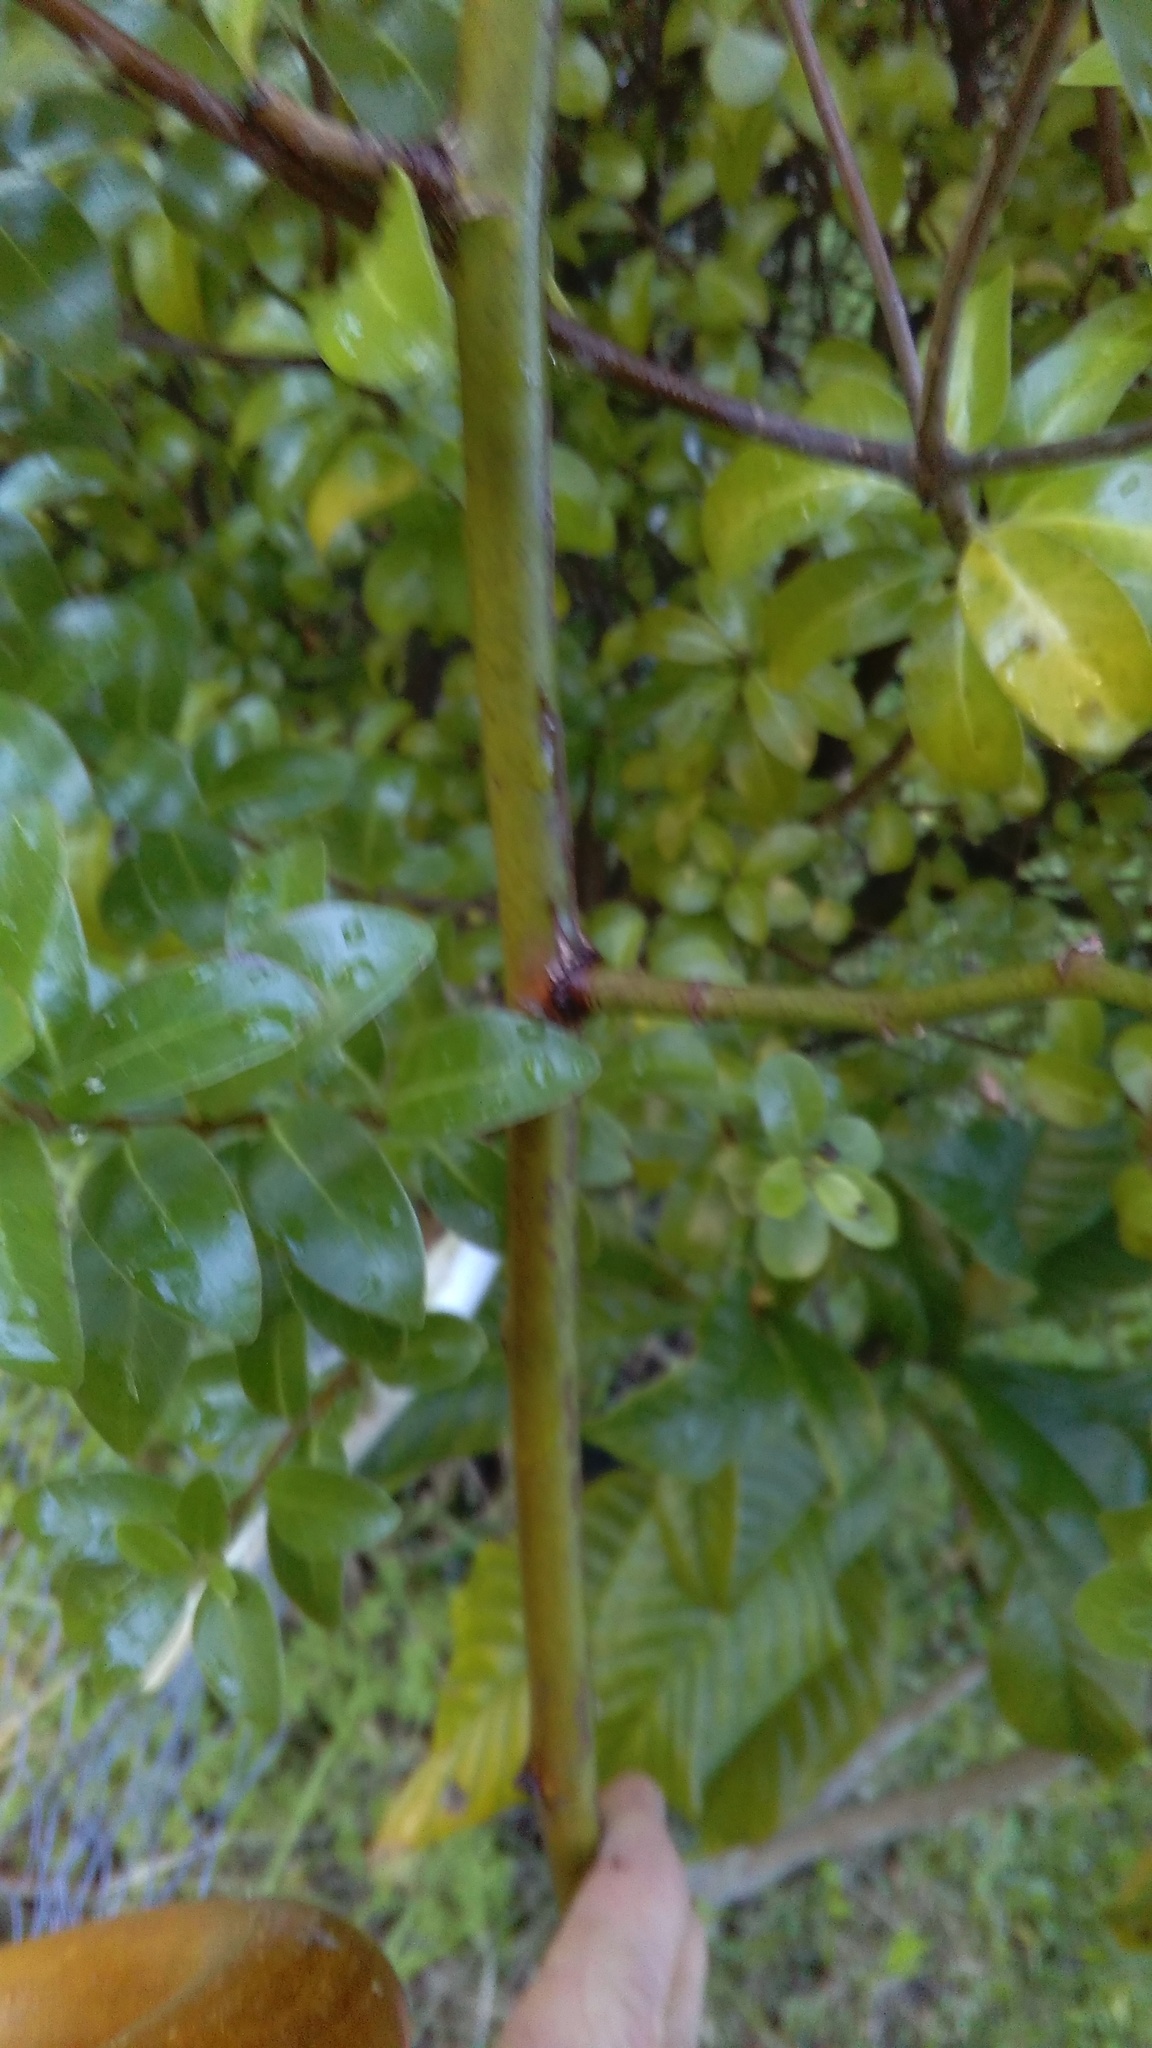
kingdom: Plantae
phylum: Tracheophyta
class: Magnoliopsida
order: Rosales
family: Rosaceae
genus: Rosa
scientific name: Rosa
